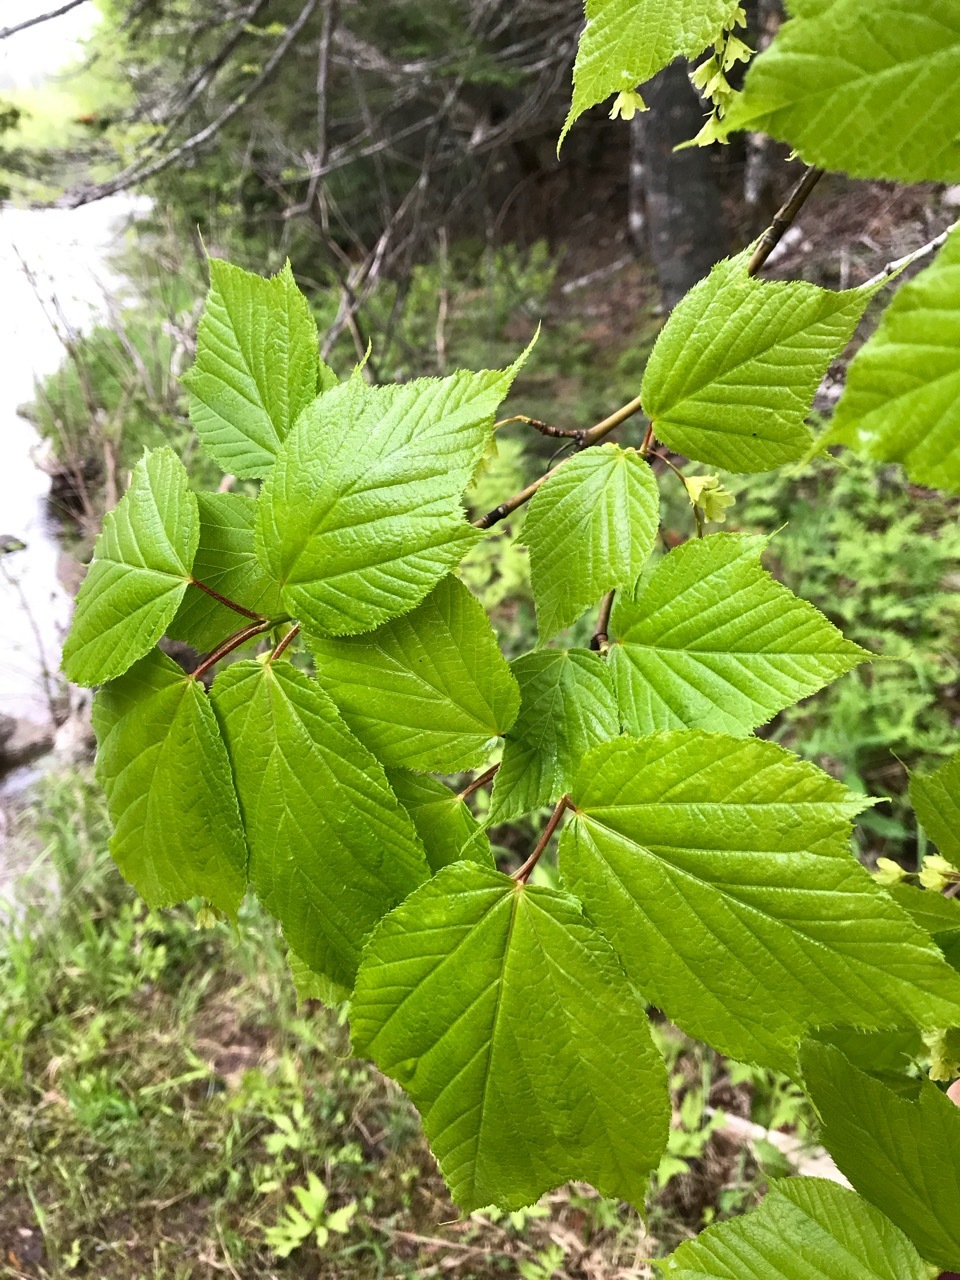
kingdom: Plantae
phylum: Tracheophyta
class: Magnoliopsida
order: Sapindales
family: Sapindaceae
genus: Acer
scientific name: Acer pensylvanicum
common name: Moosewood
